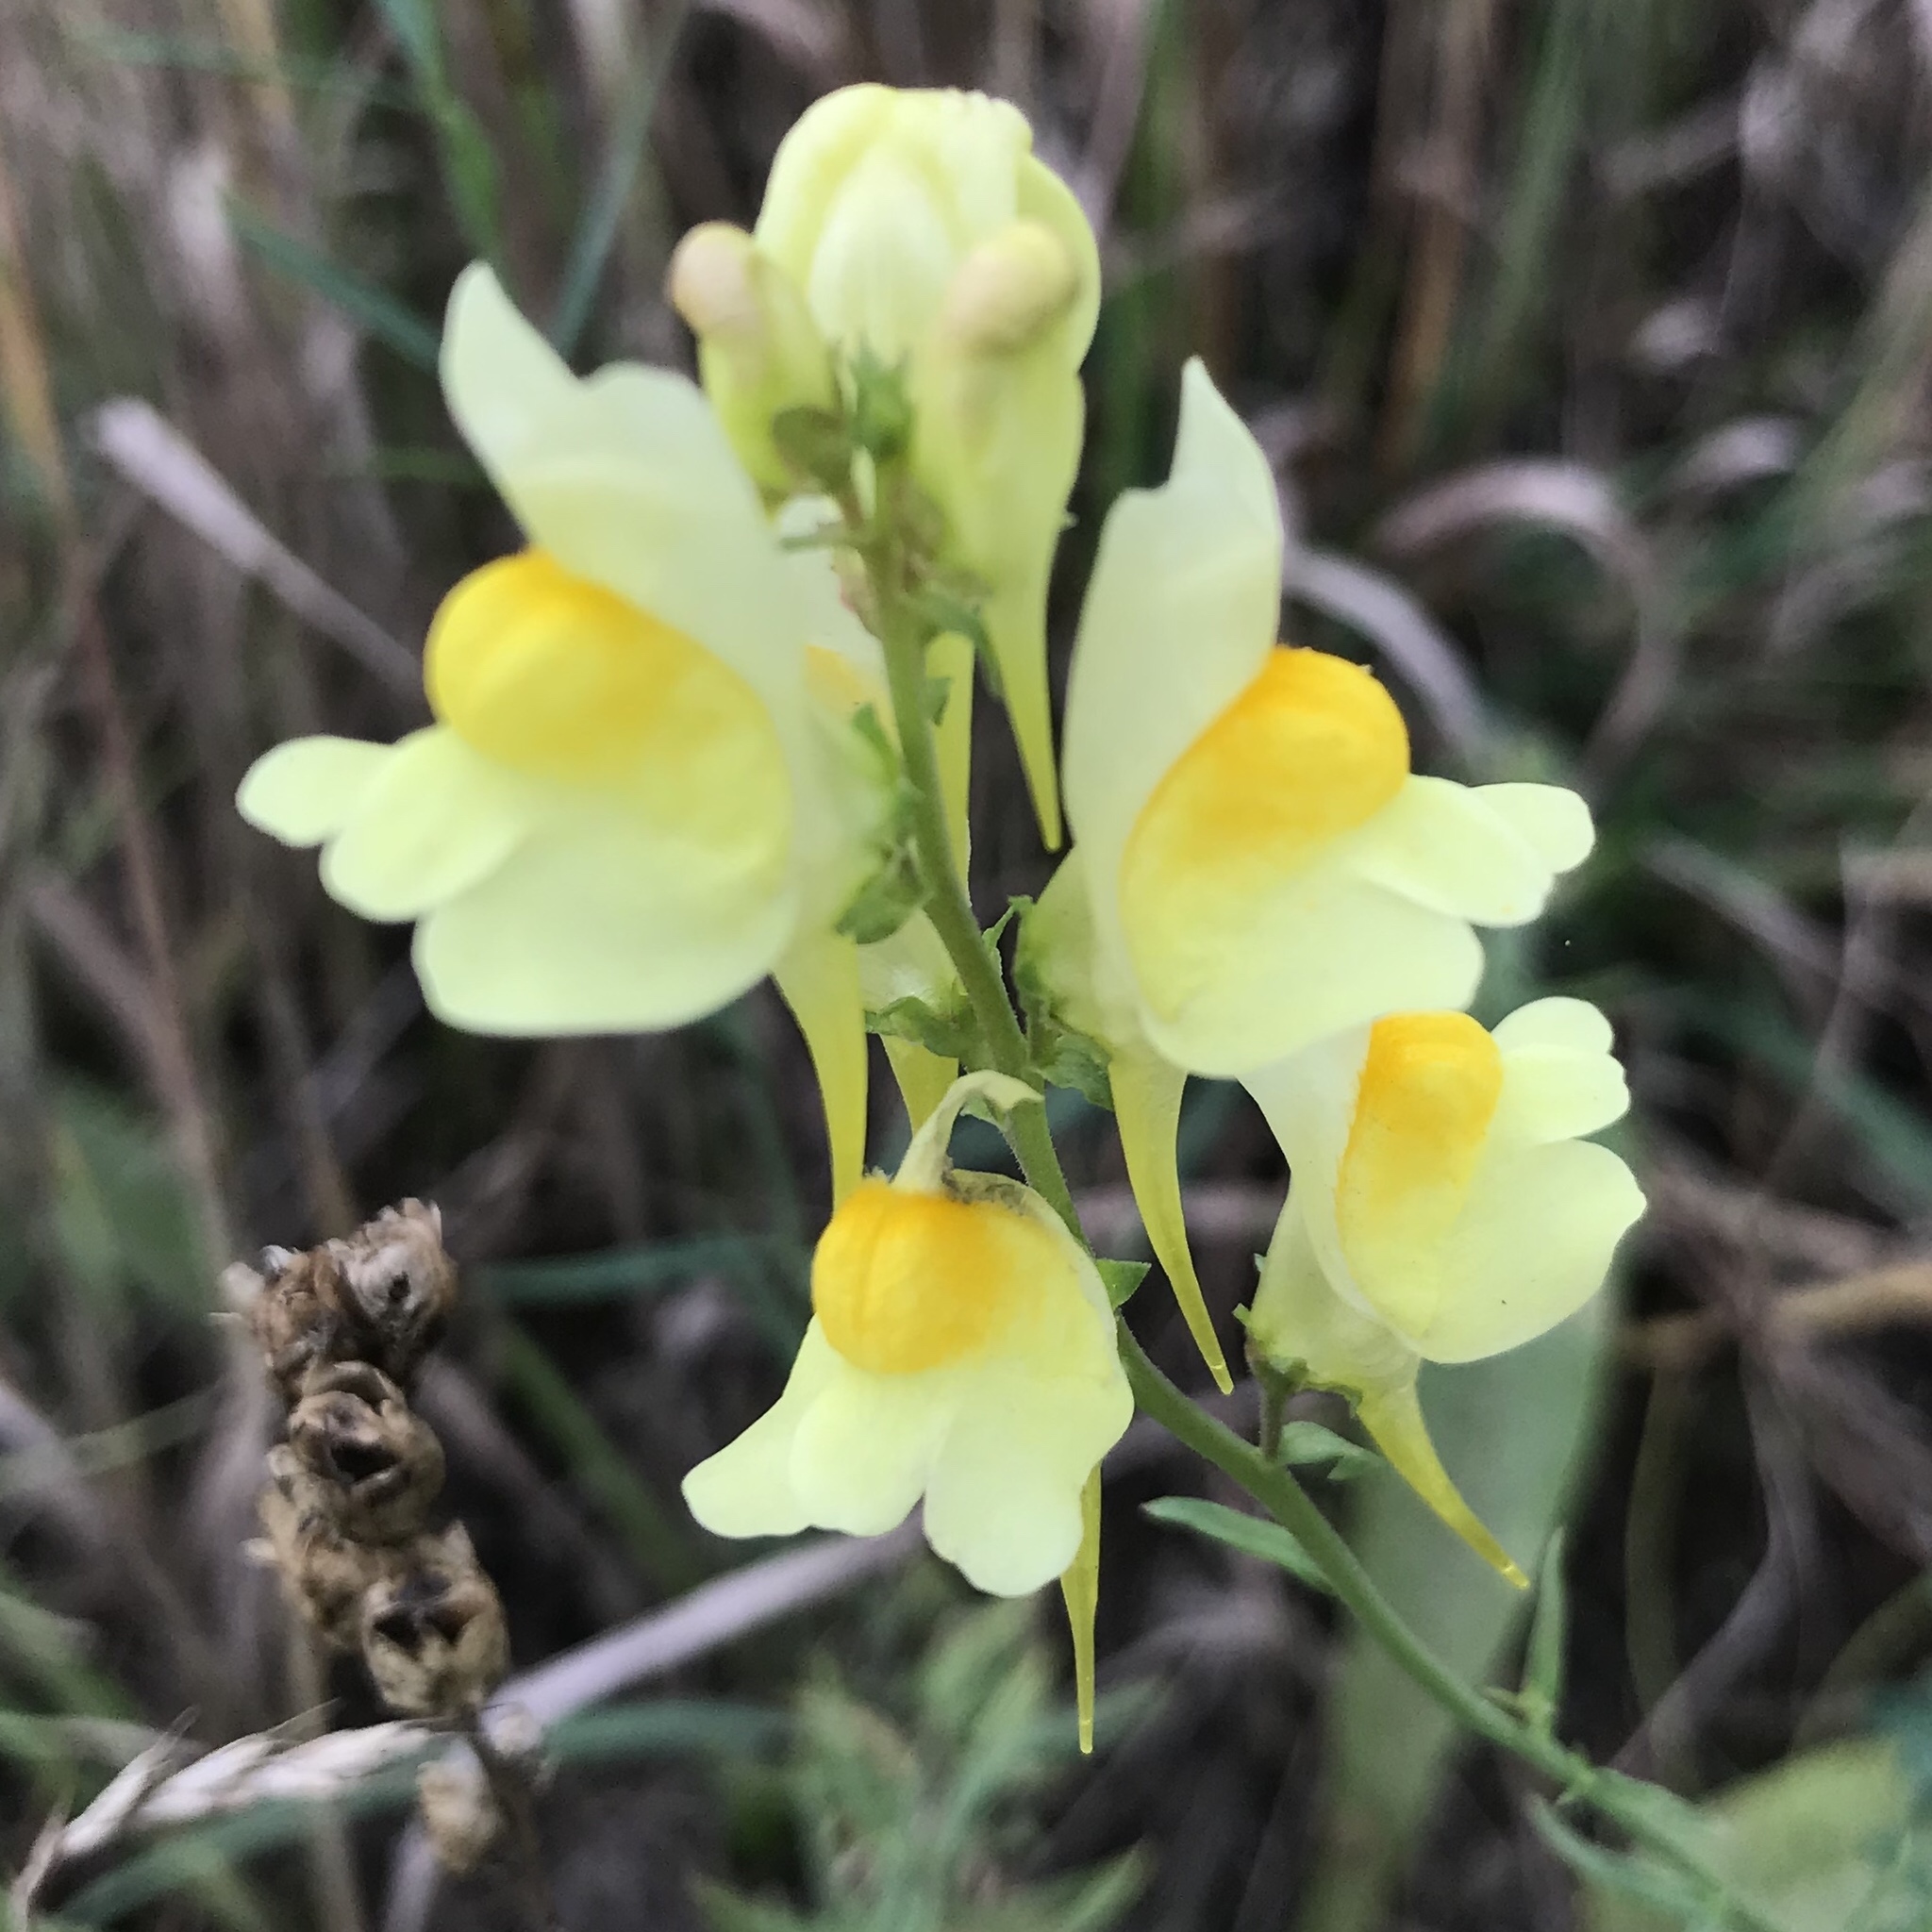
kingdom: Plantae
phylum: Tracheophyta
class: Magnoliopsida
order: Lamiales
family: Plantaginaceae
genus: Linaria
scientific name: Linaria vulgaris
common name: Butter and eggs
